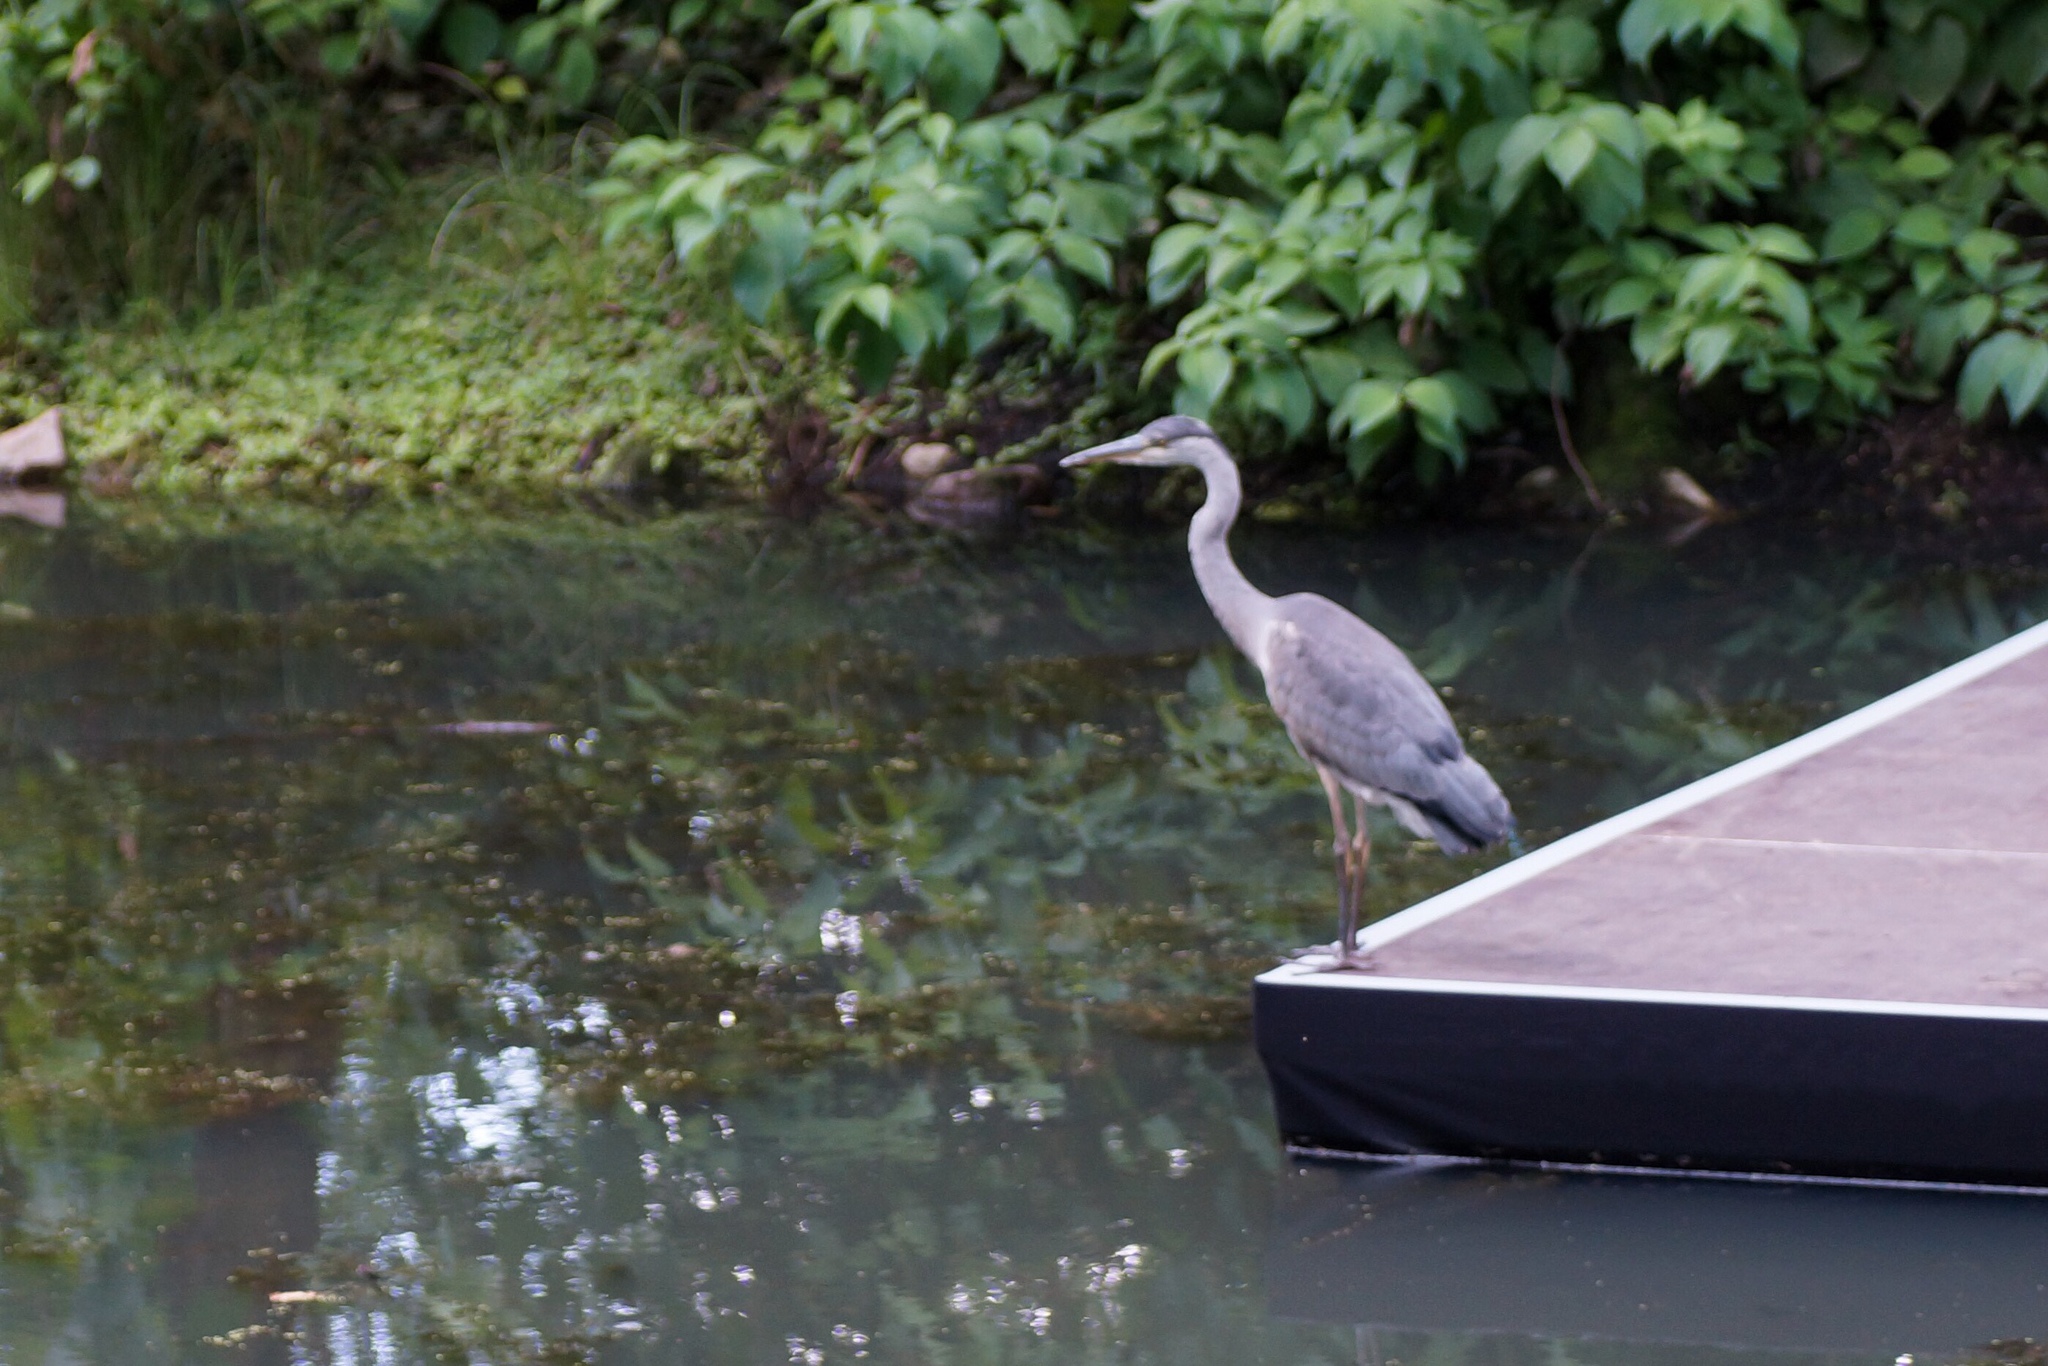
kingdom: Animalia
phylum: Chordata
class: Aves
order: Pelecaniformes
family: Ardeidae
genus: Ardea
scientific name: Ardea cinerea
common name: Grey heron
